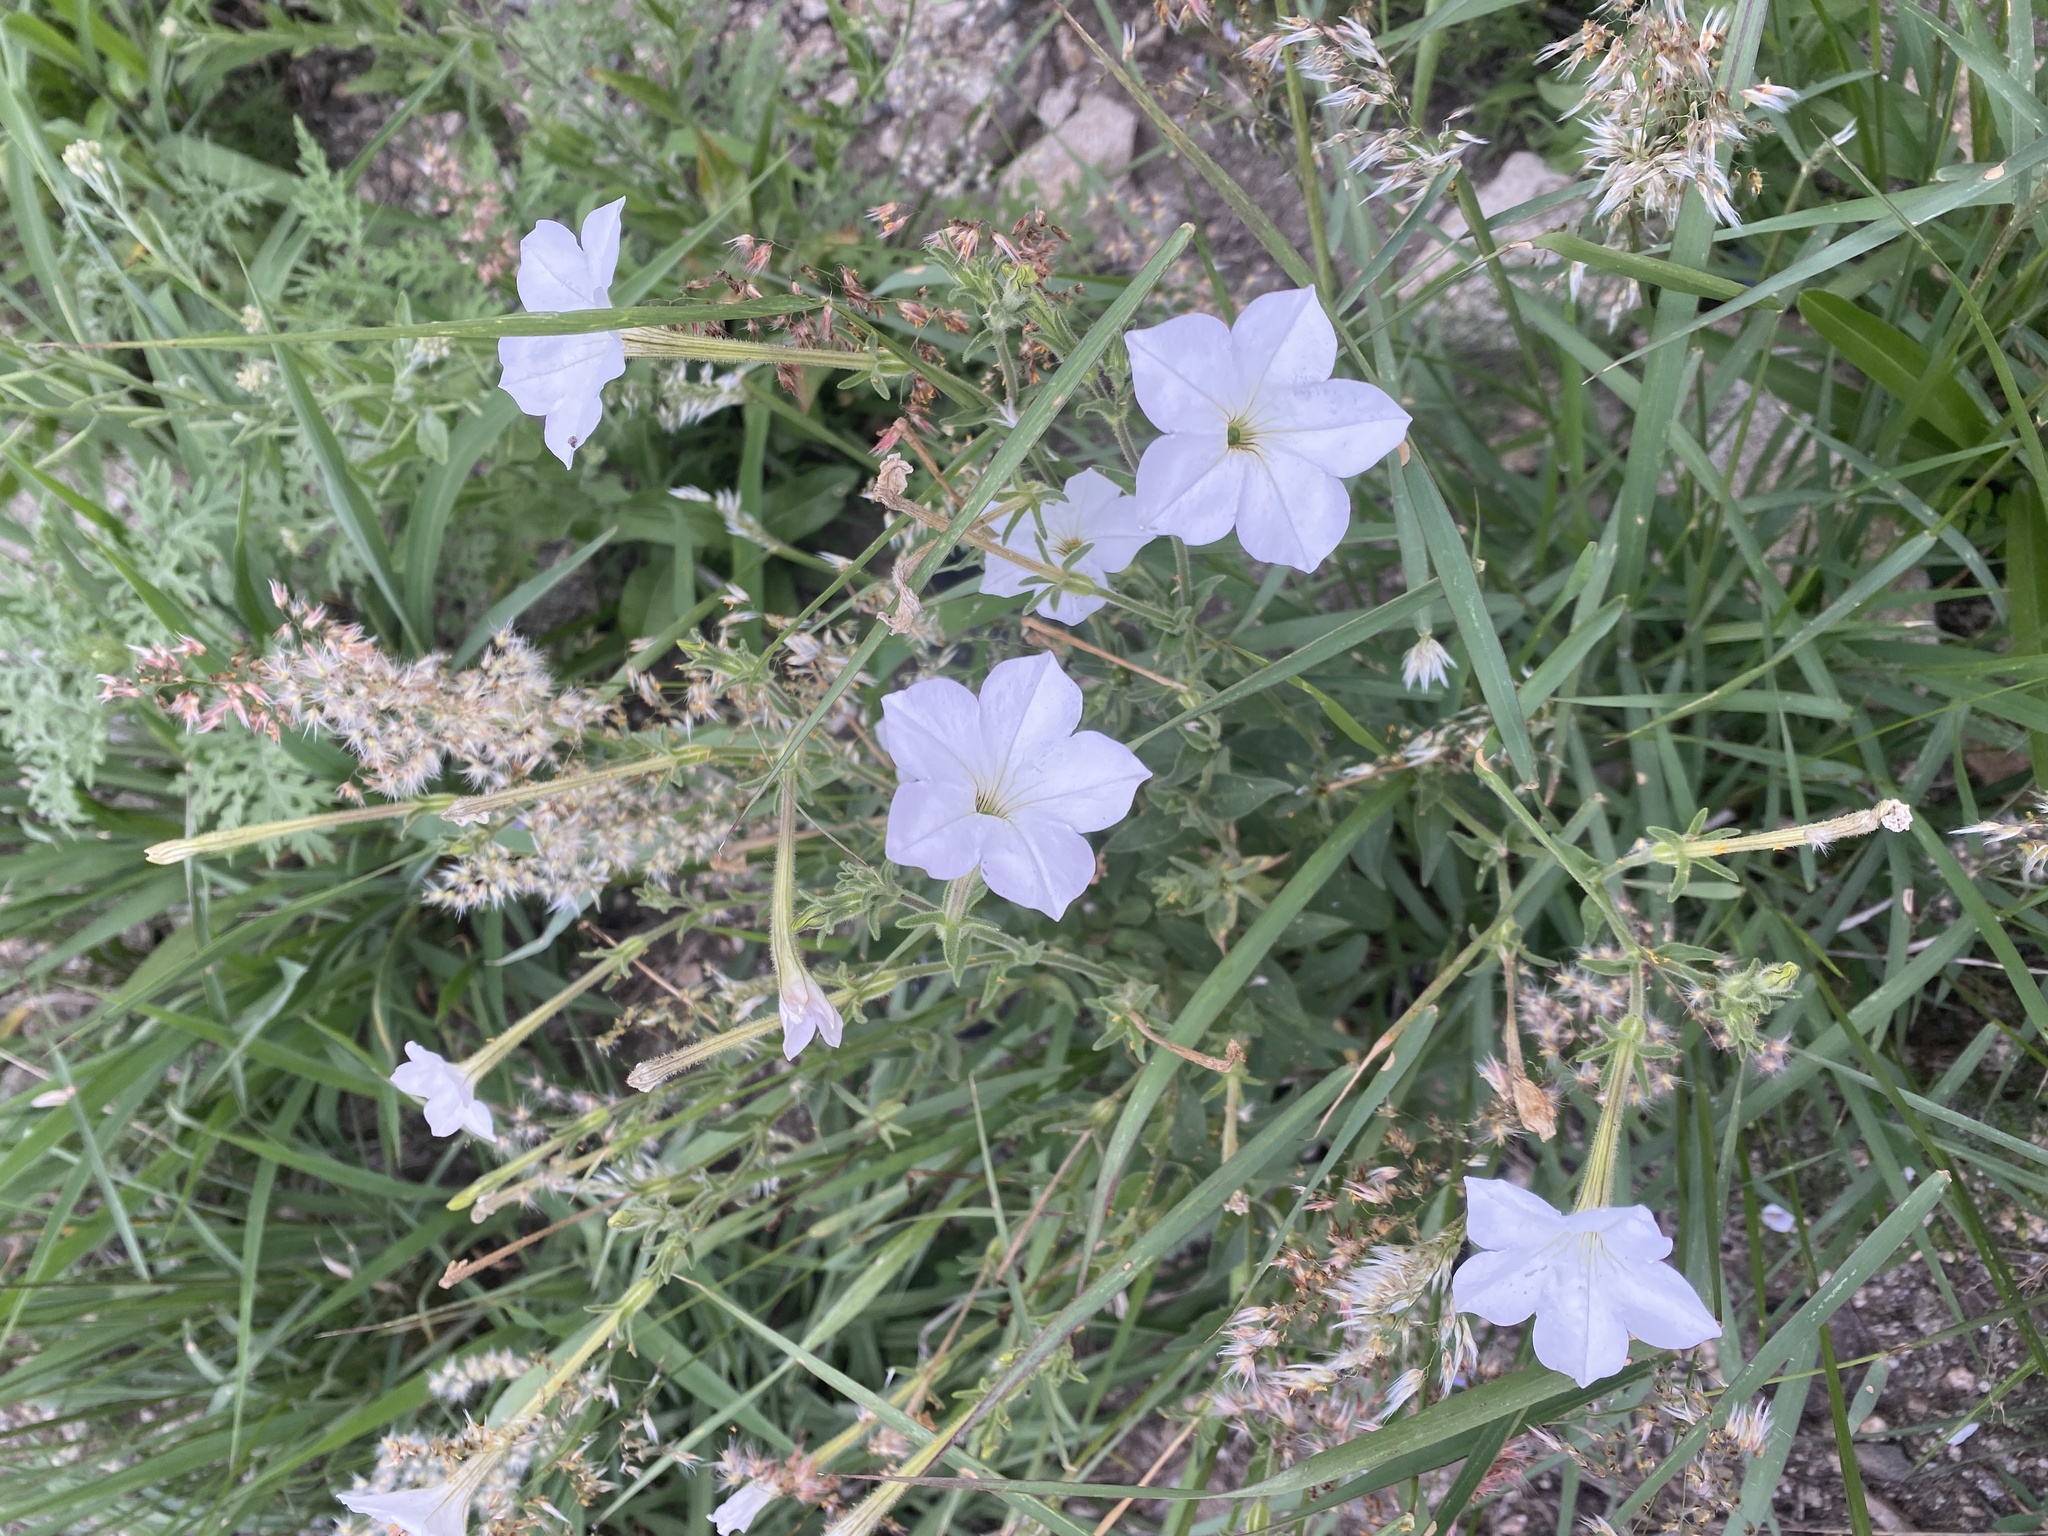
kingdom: Plantae
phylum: Tracheophyta
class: Magnoliopsida
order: Solanales
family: Solanaceae
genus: Petunia
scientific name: Petunia axillaris
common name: Large white petunia
